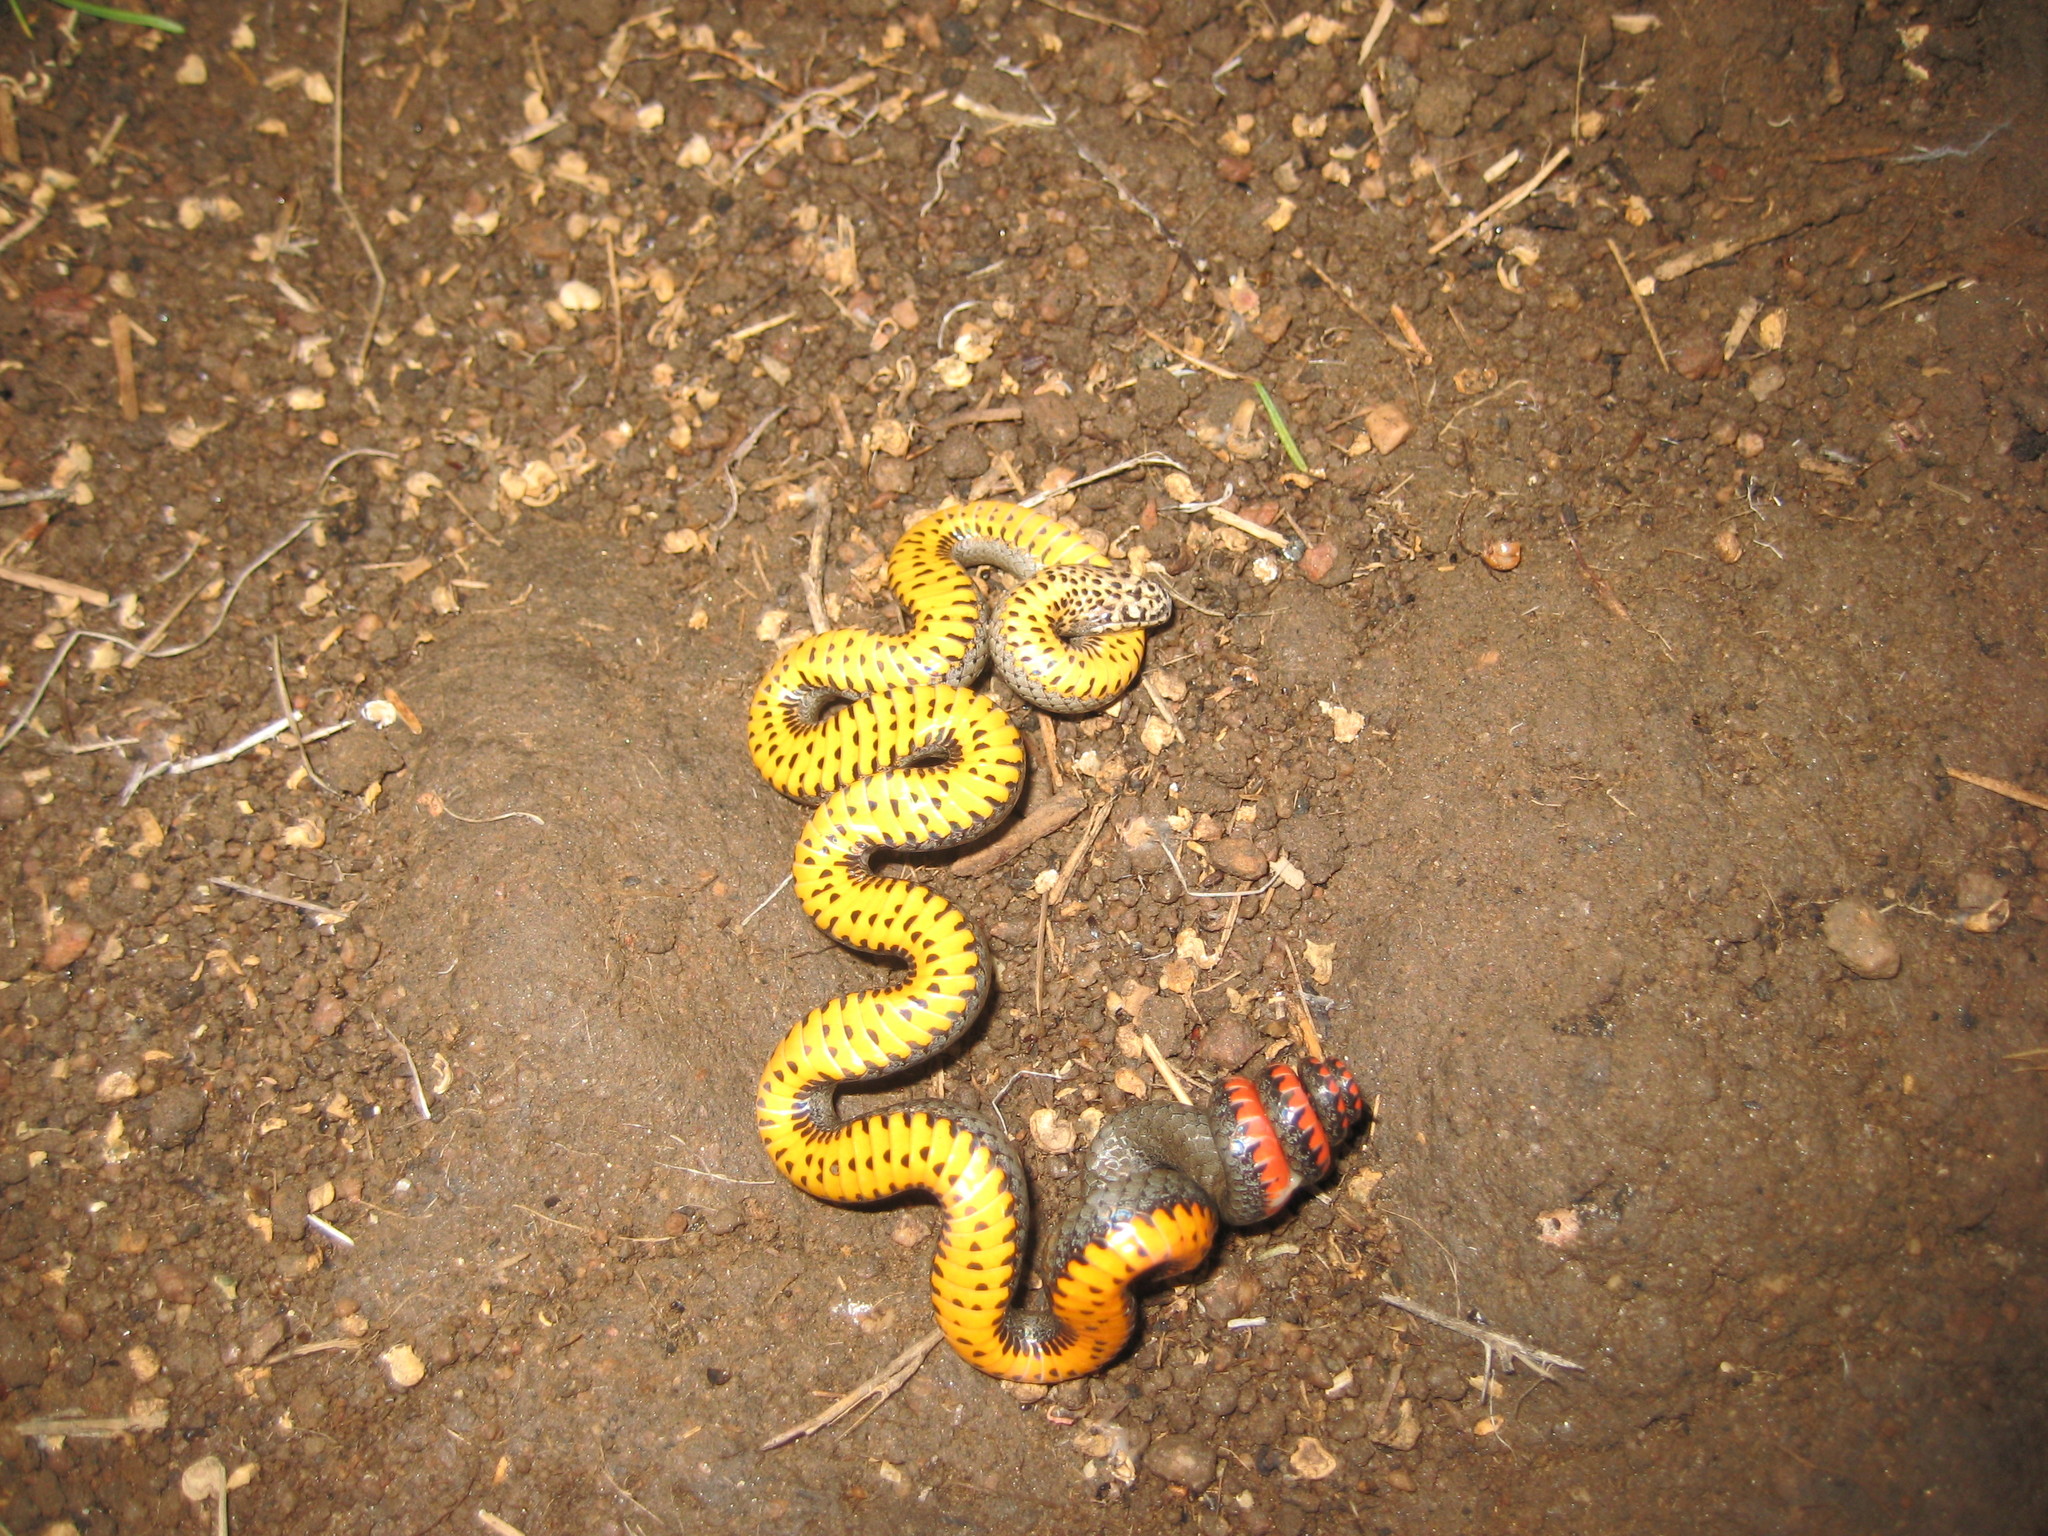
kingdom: Animalia
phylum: Chordata
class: Squamata
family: Colubridae
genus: Diadophis
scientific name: Diadophis punctatus
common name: Ringneck snake
